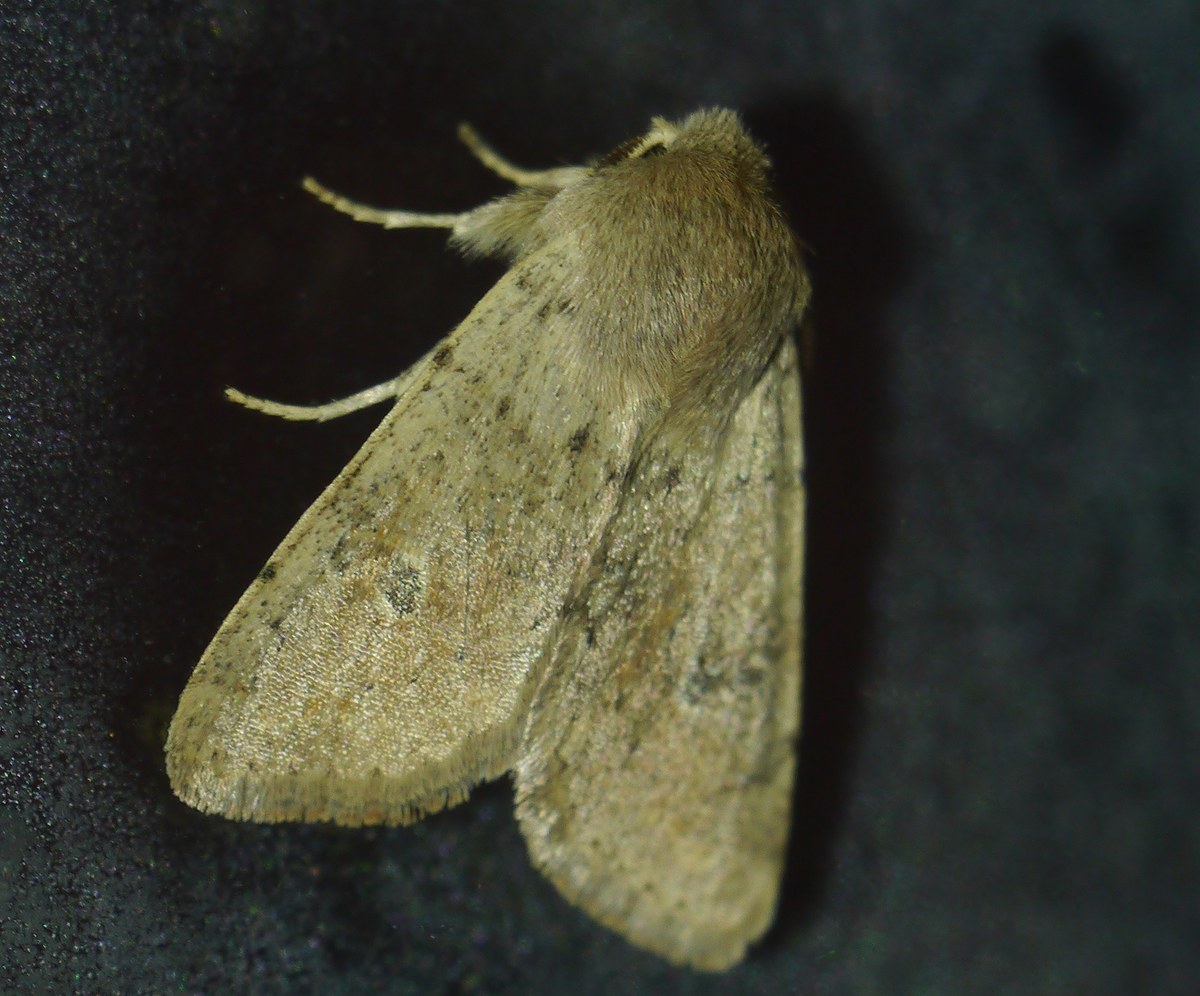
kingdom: Animalia
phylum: Arthropoda
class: Insecta
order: Lepidoptera
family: Noctuidae
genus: Orthosia
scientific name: Orthosia cruda
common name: Small quaker
